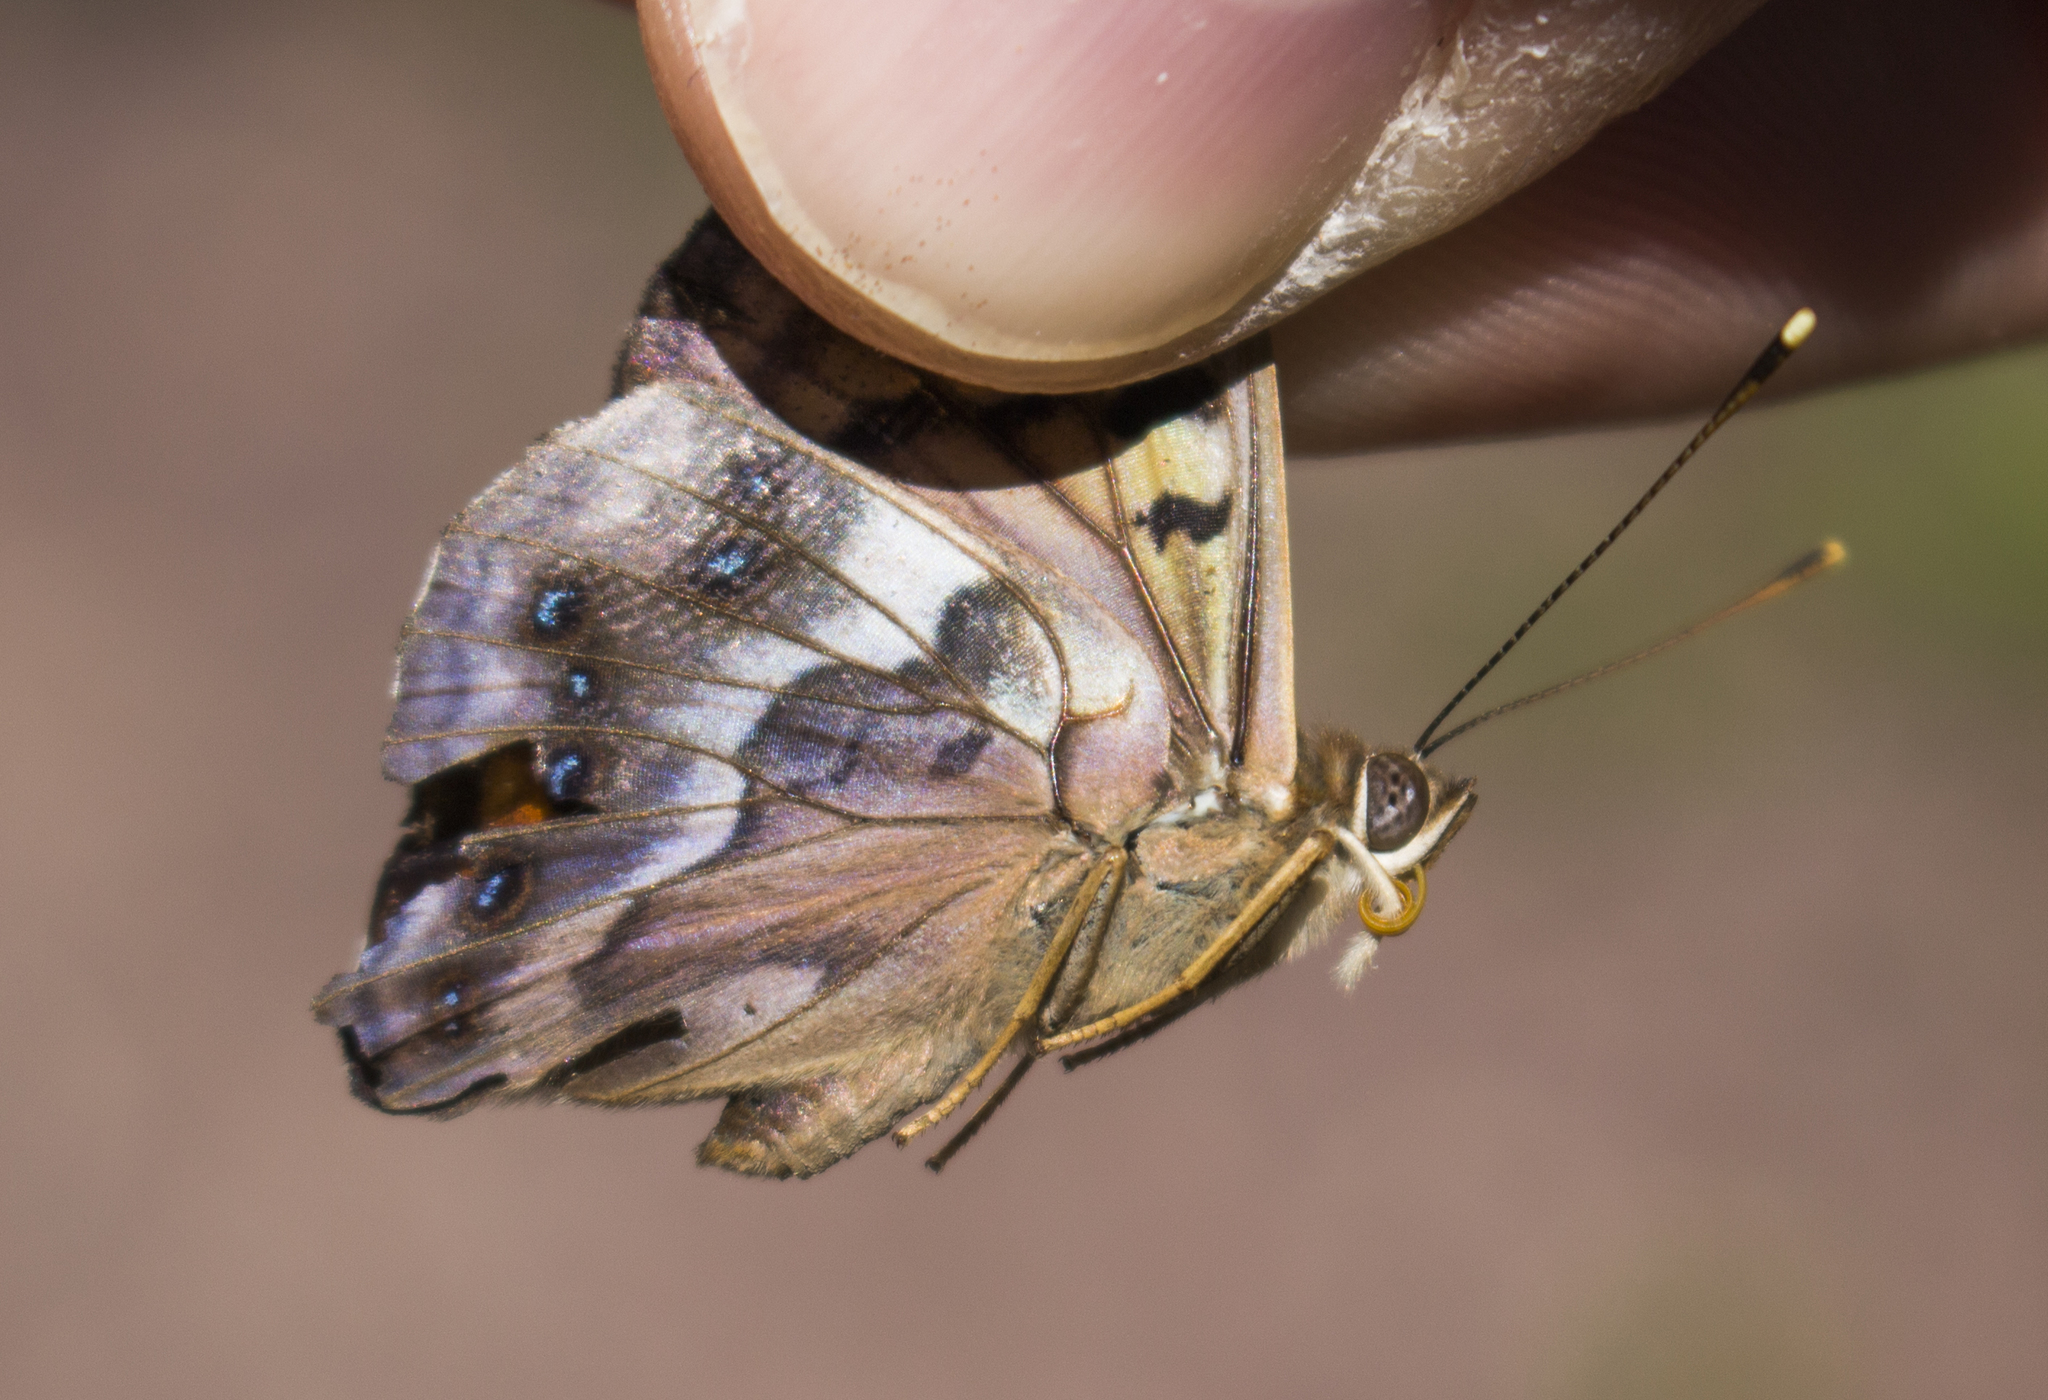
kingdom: Animalia
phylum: Arthropoda
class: Insecta
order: Lepidoptera
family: Nymphalidae
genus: Asterocampa
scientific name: Asterocampa clyton
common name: Tawny emperor
